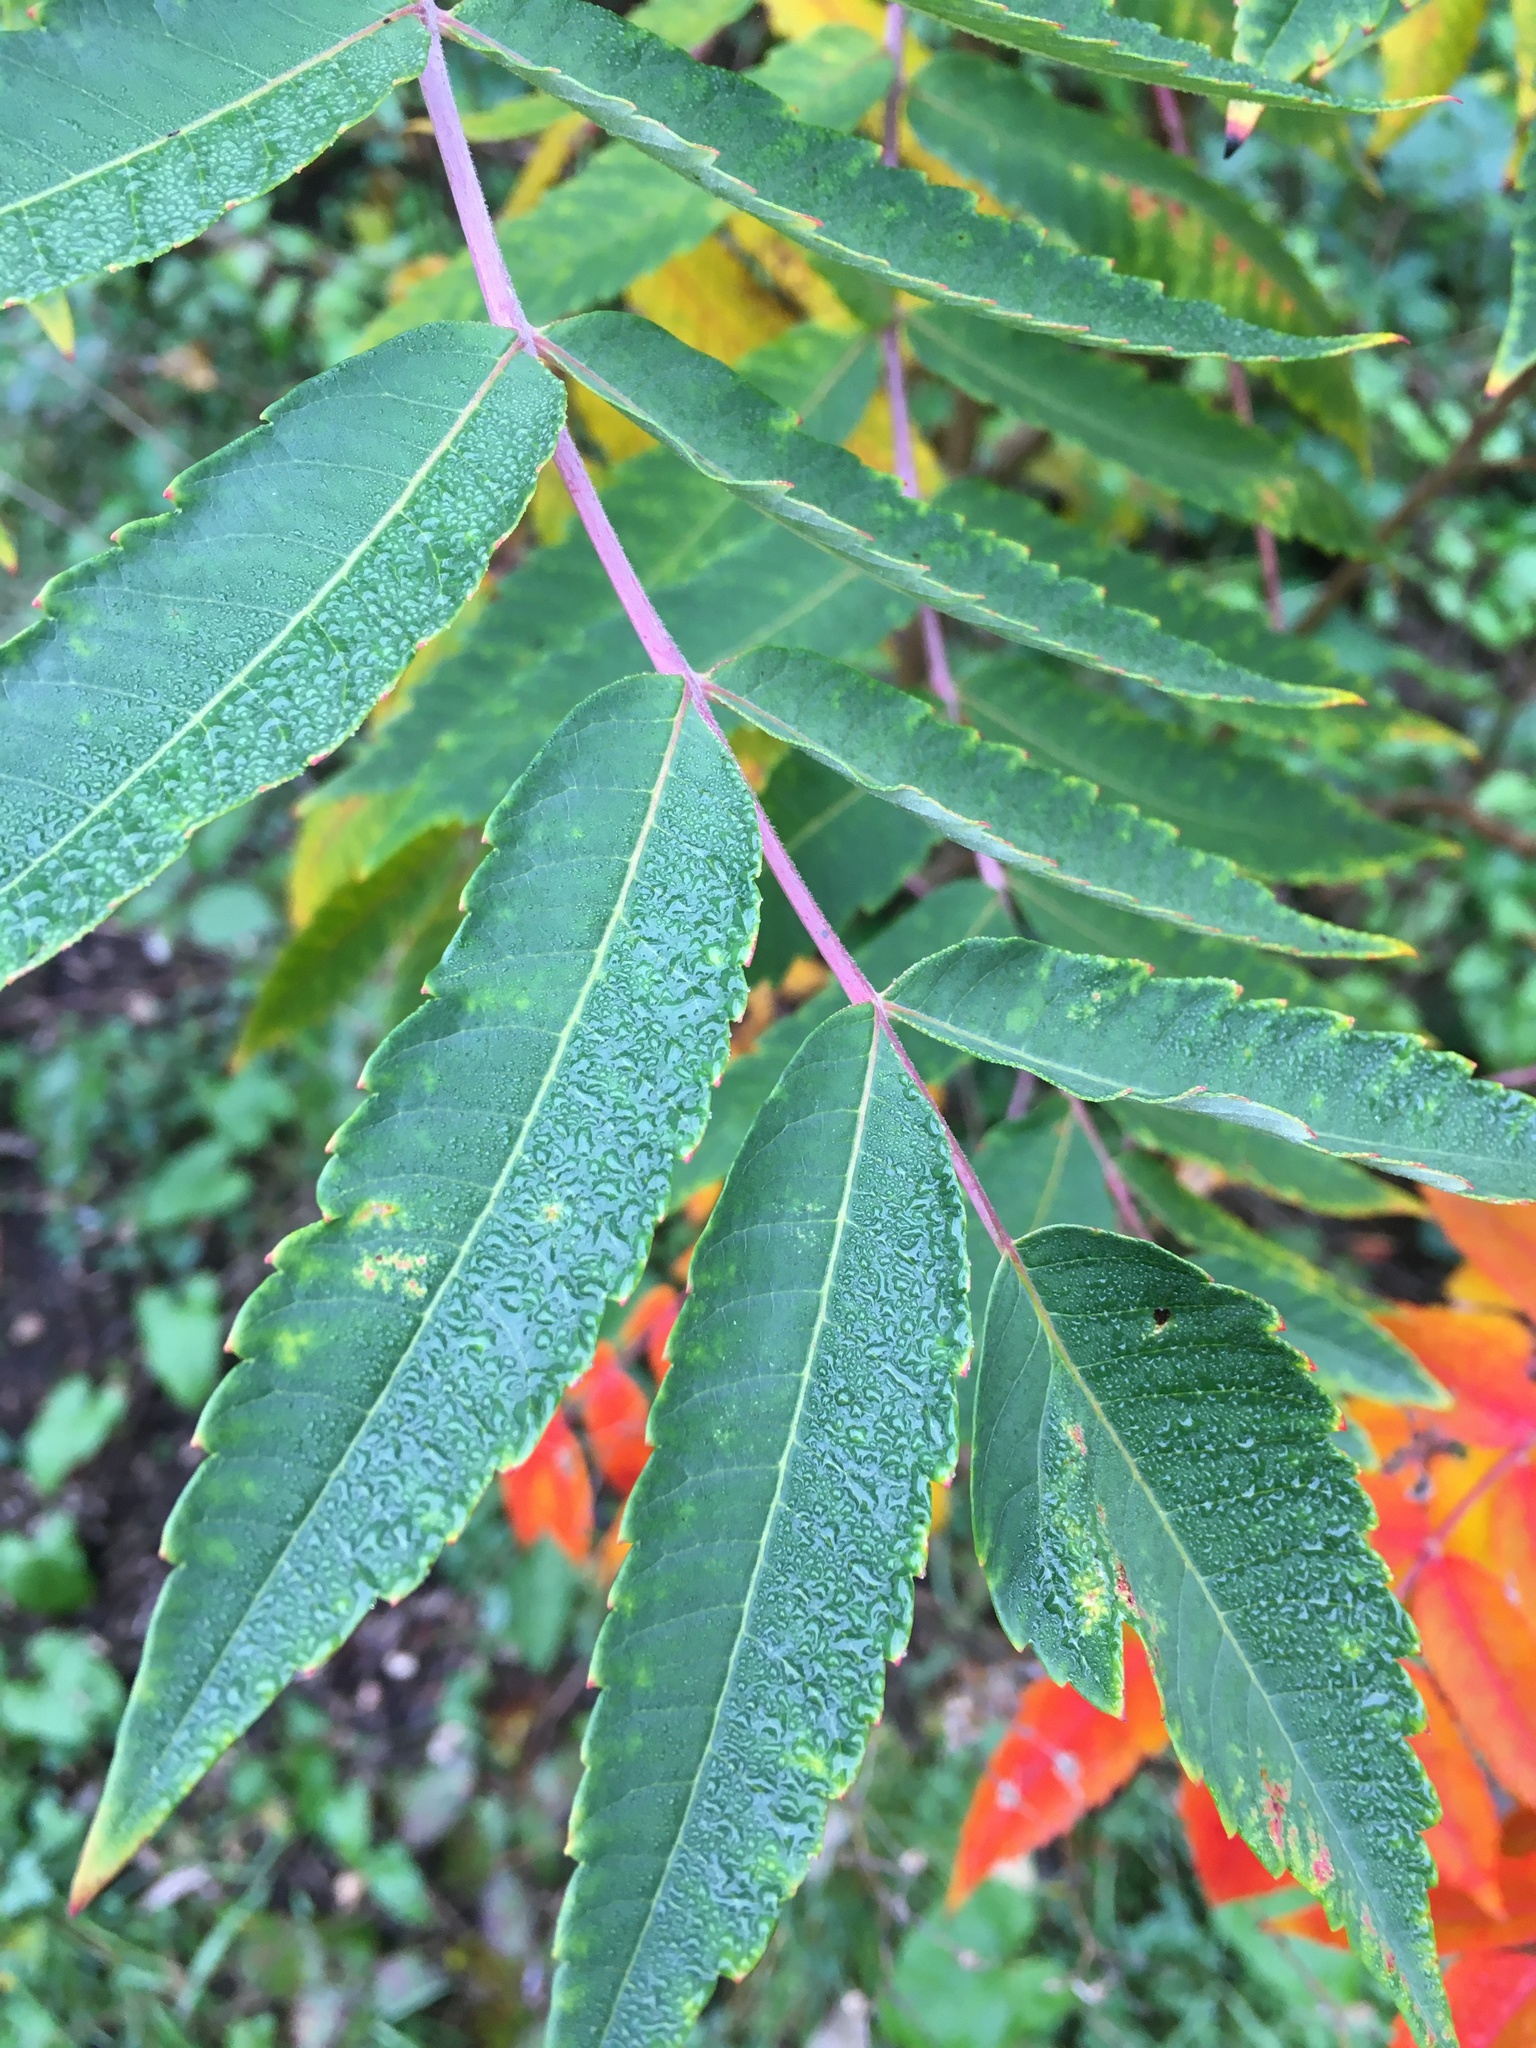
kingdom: Plantae
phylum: Tracheophyta
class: Magnoliopsida
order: Sapindales
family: Anacardiaceae
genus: Rhus
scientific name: Rhus glabra
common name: Scarlet sumac
